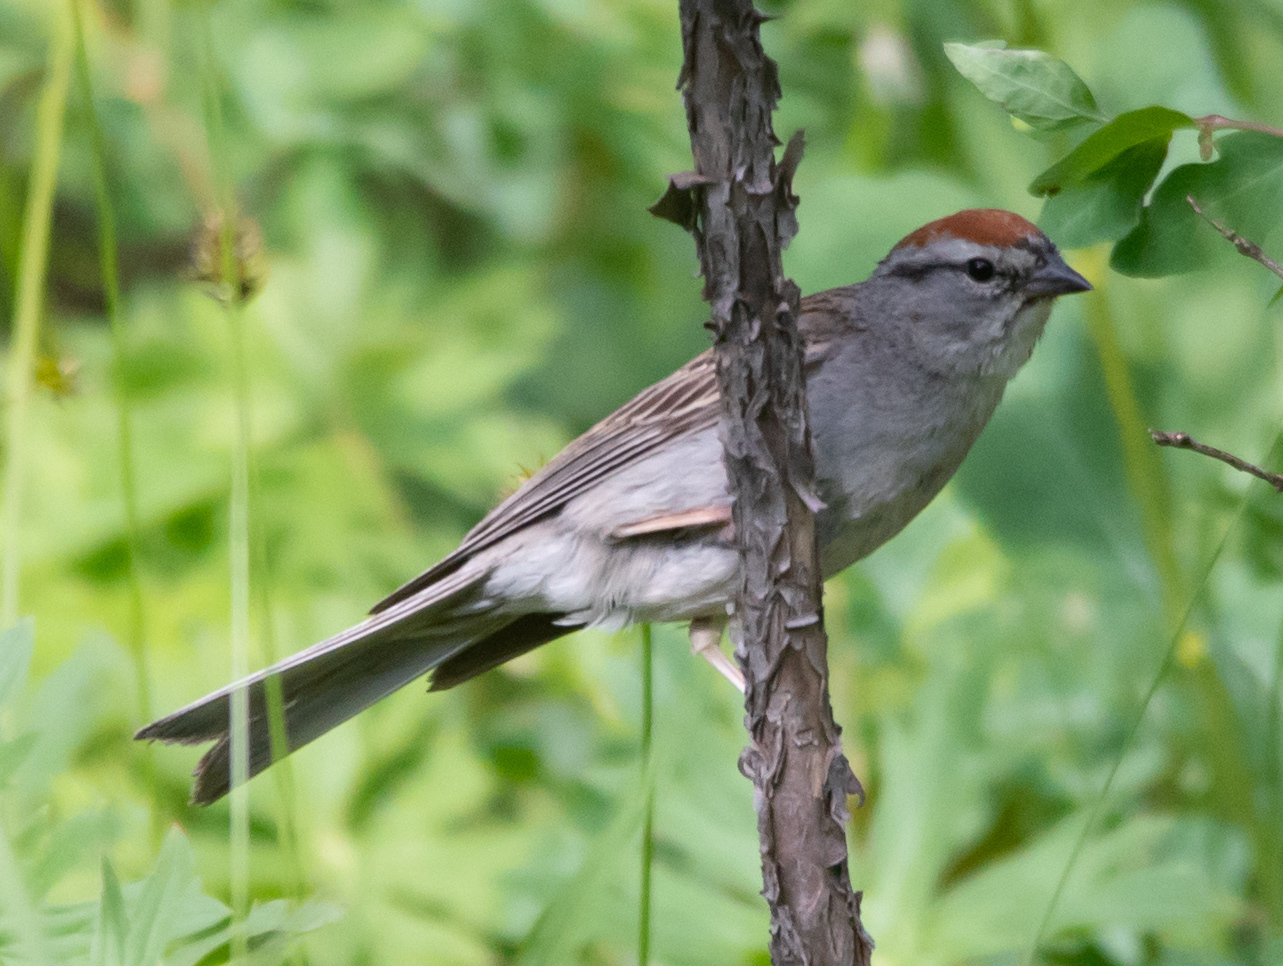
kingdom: Animalia
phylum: Chordata
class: Aves
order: Passeriformes
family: Passerellidae
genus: Spizella
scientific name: Spizella passerina
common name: Chipping sparrow
